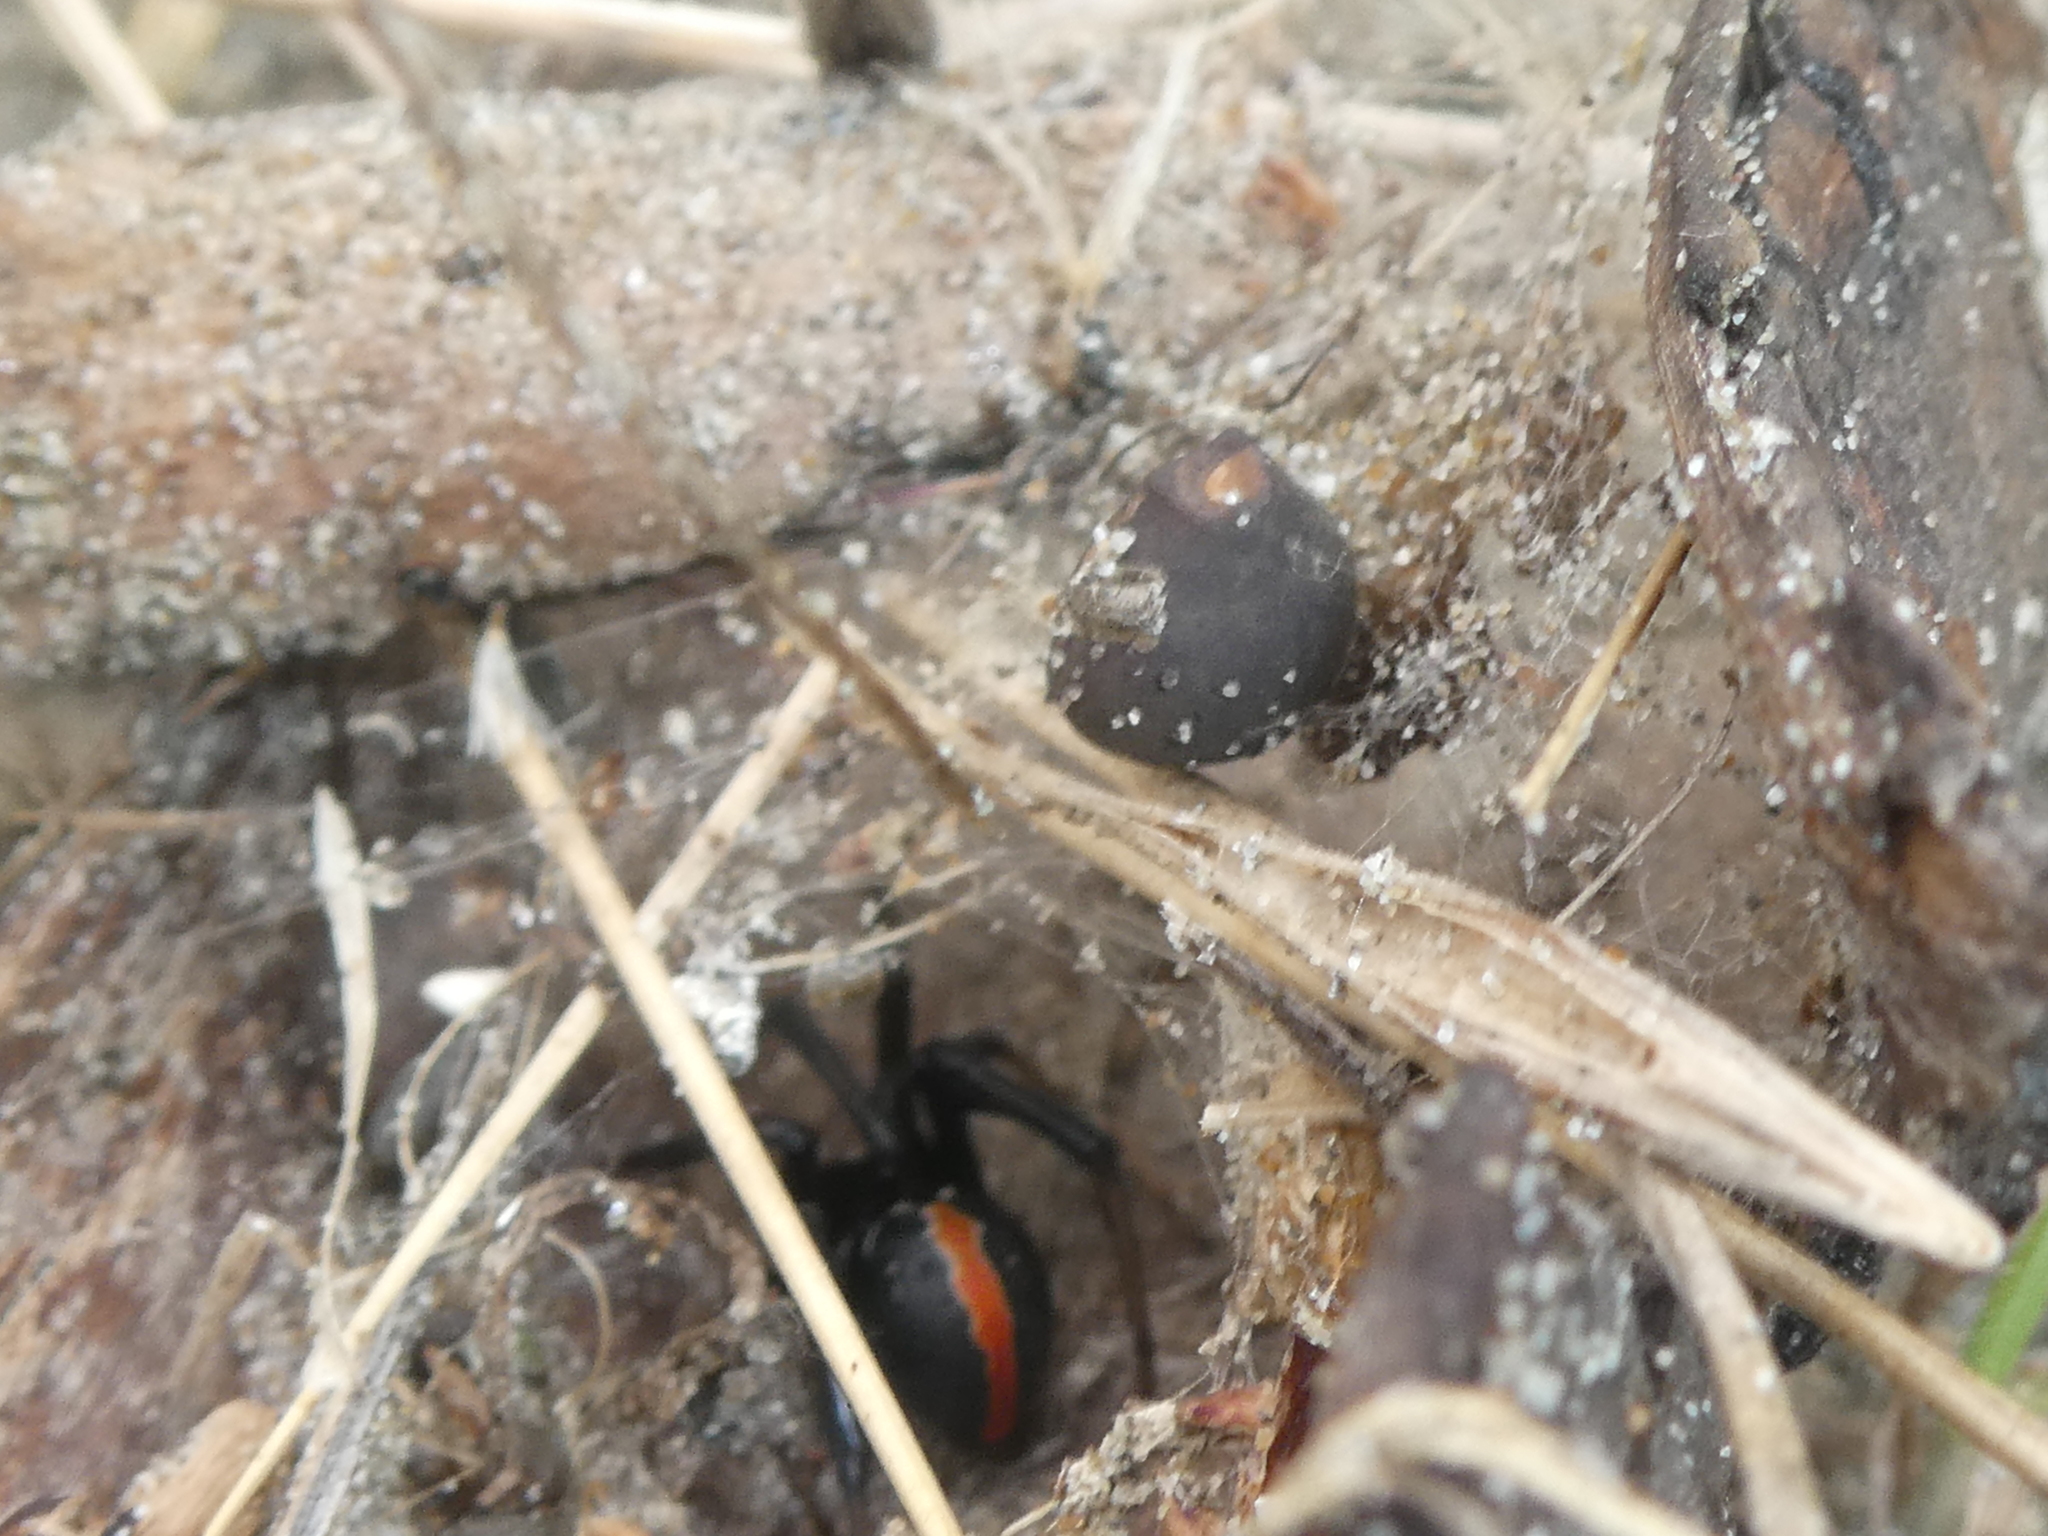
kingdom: Animalia
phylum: Arthropoda
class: Arachnida
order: Araneae
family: Theridiidae
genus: Latrodectus
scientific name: Latrodectus katipo
